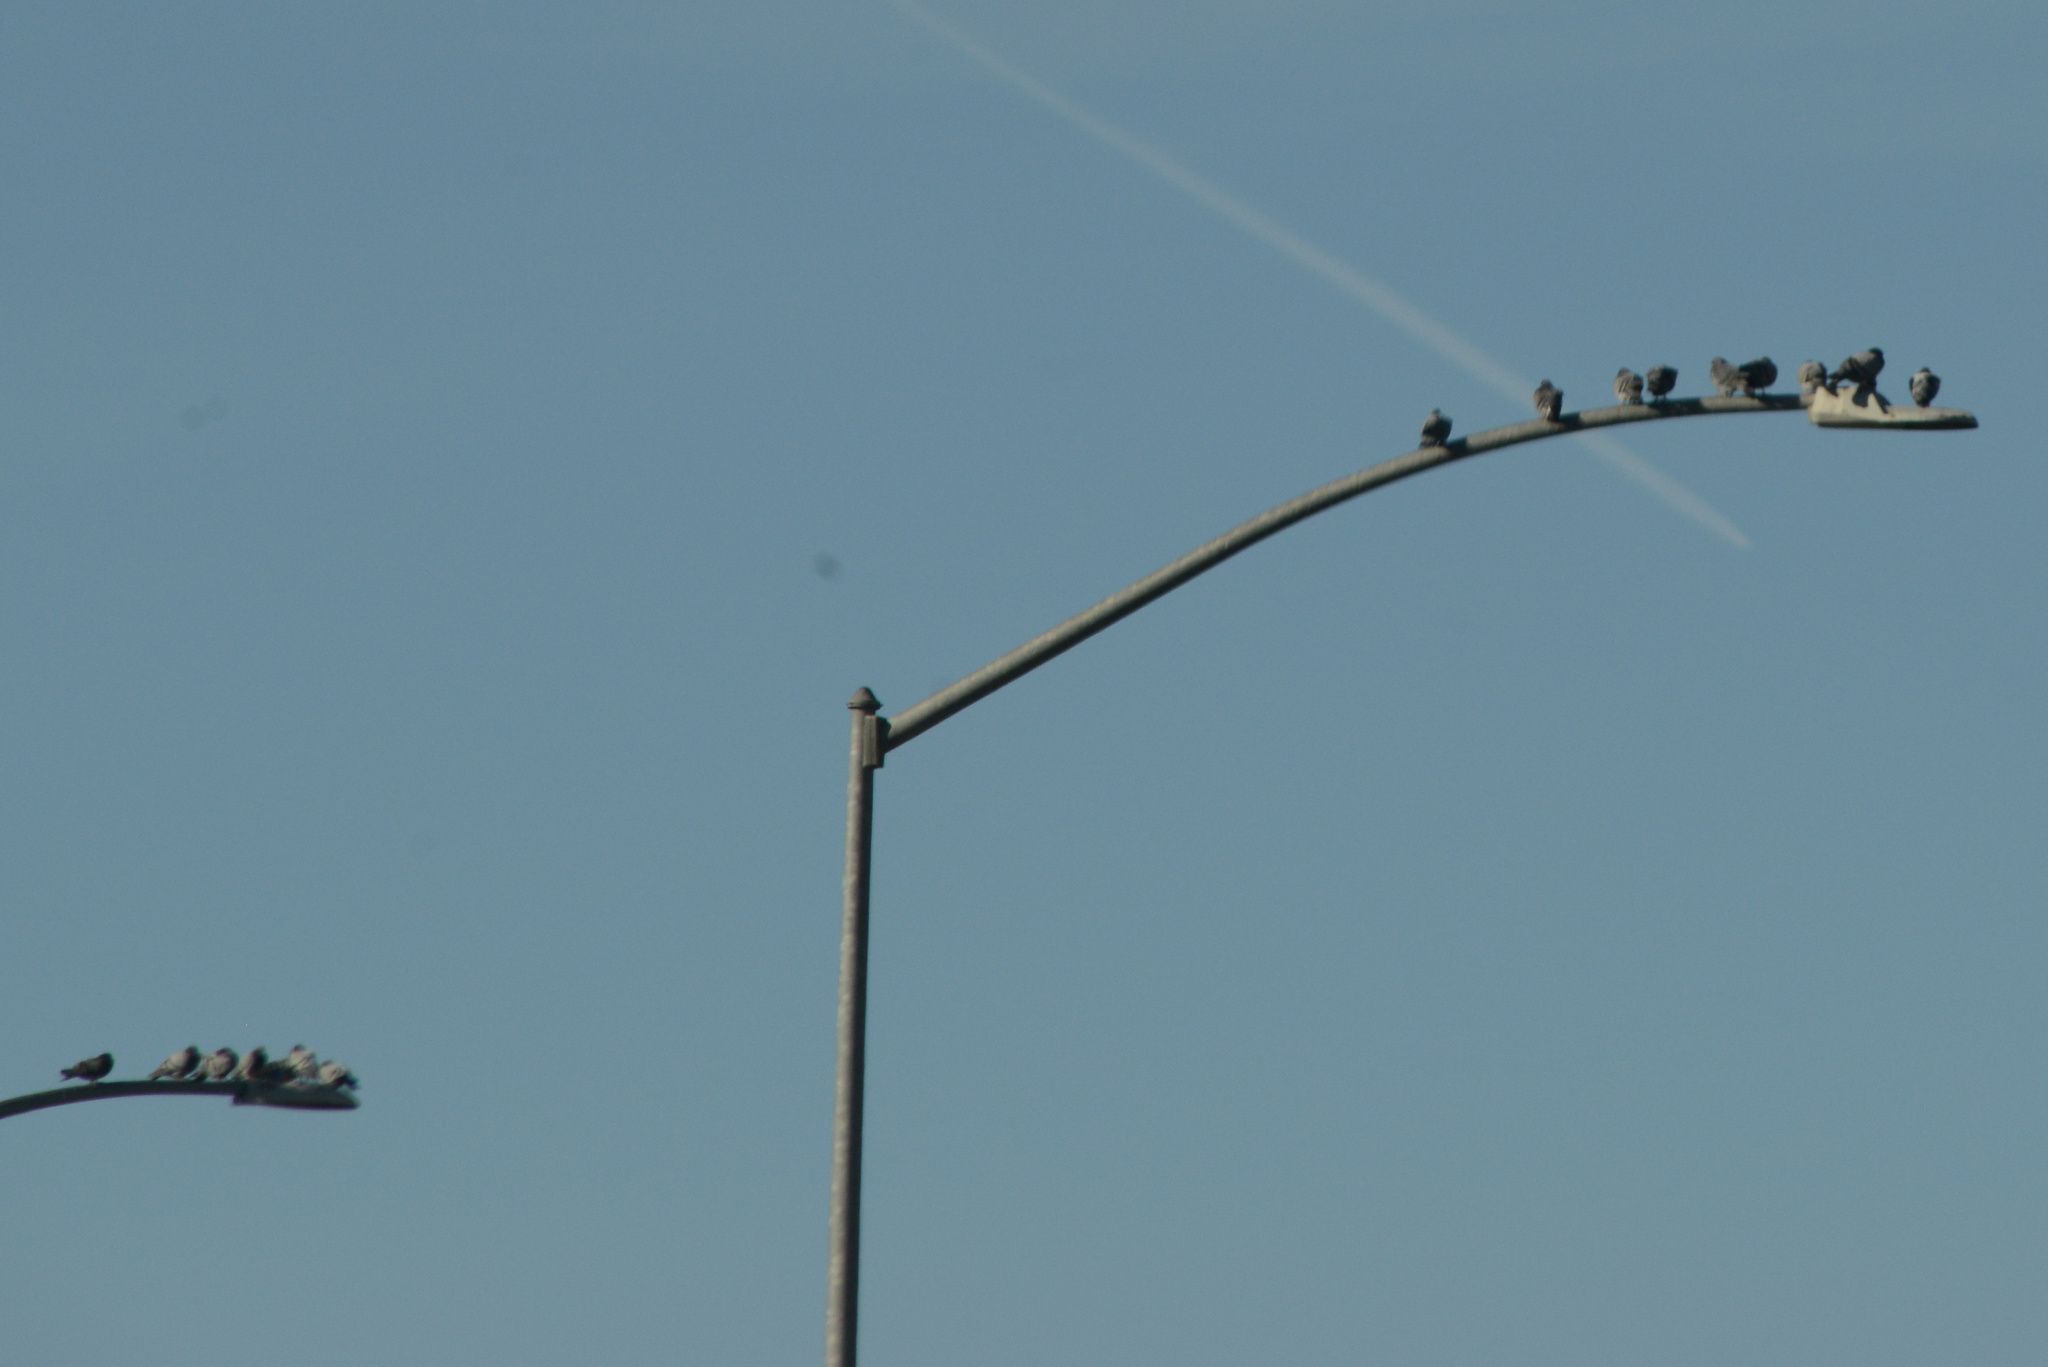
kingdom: Animalia
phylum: Chordata
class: Aves
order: Columbiformes
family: Columbidae
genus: Columba
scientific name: Columba livia
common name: Rock pigeon
